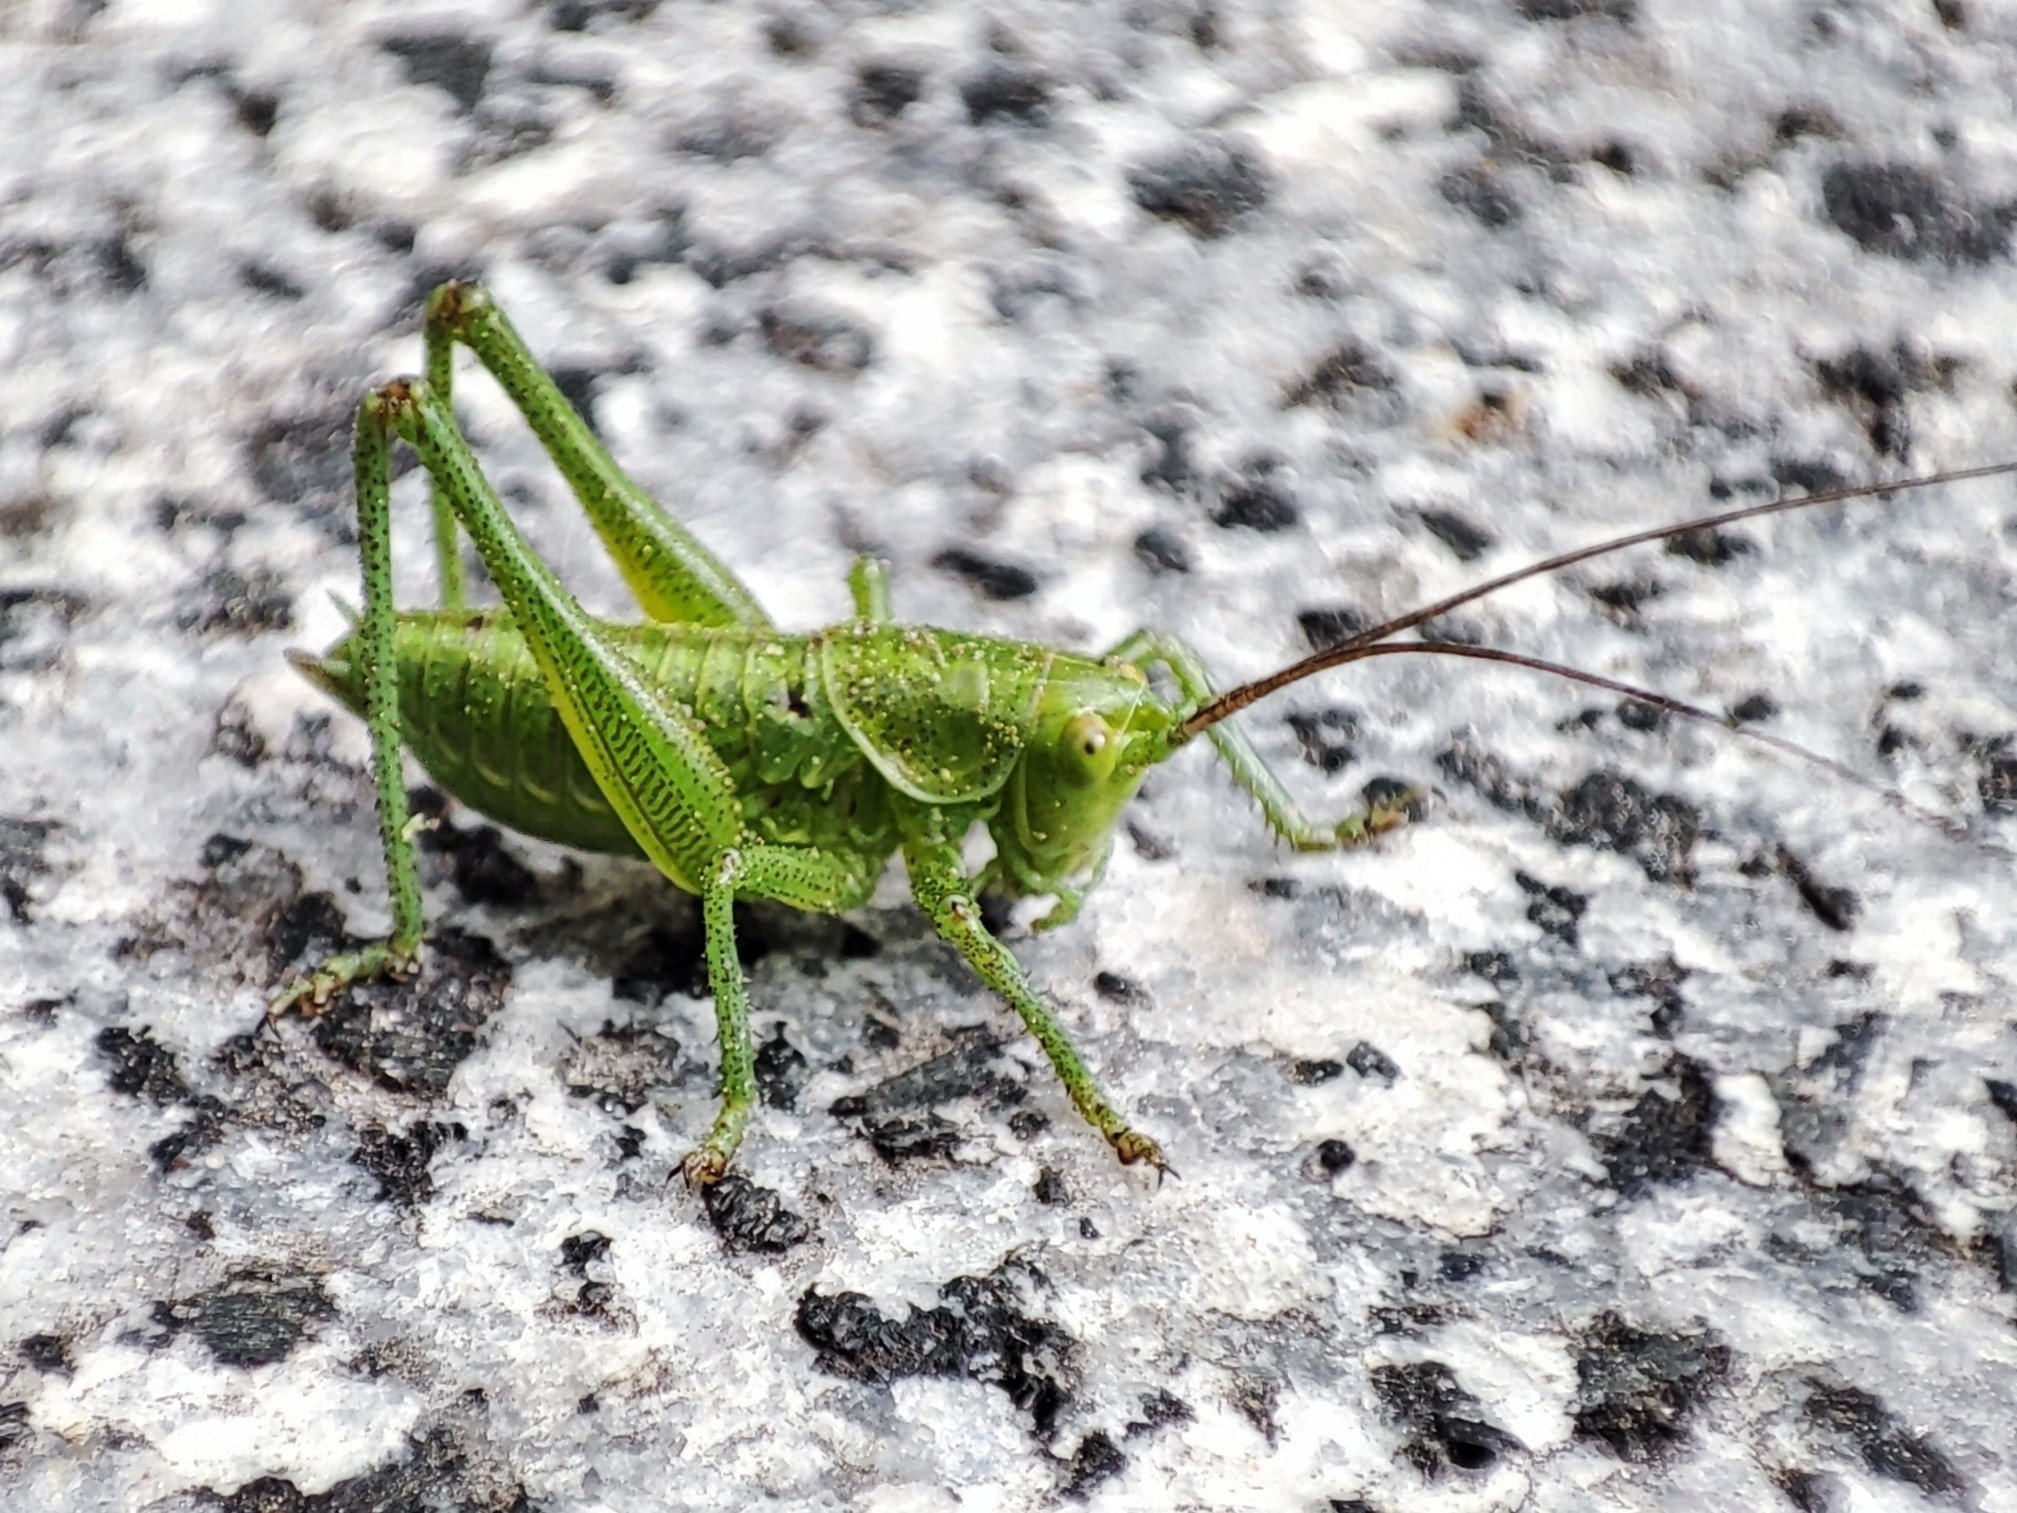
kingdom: Animalia
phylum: Arthropoda
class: Insecta
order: Orthoptera
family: Tettigoniidae
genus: Tettigonia
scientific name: Tettigonia
